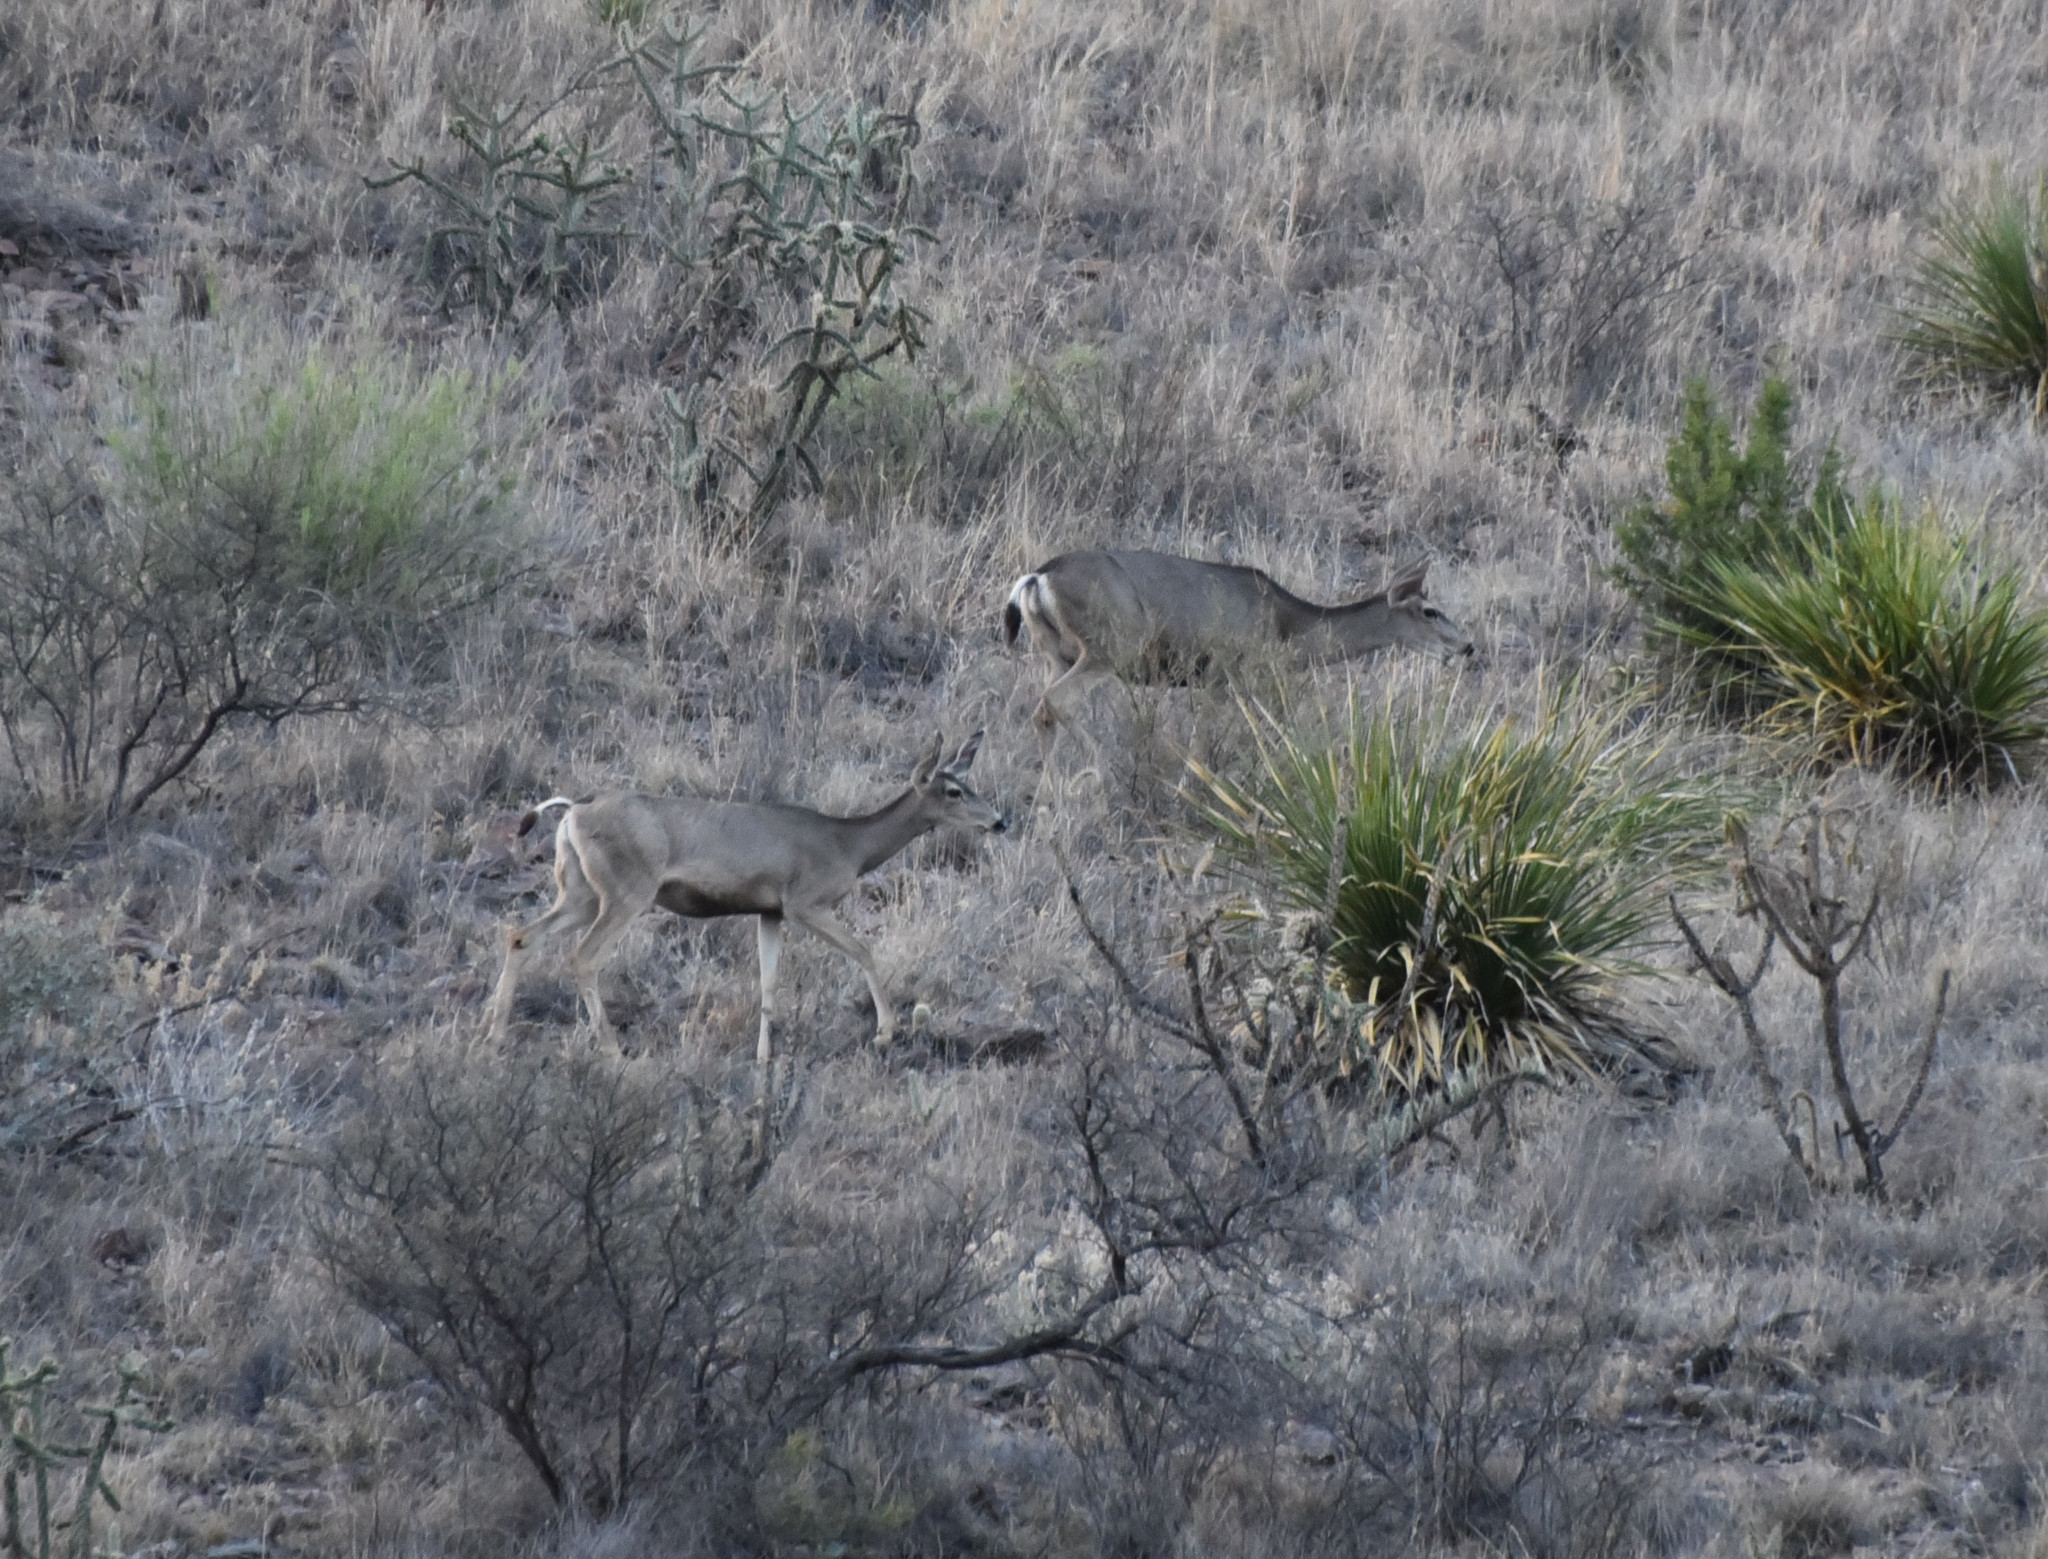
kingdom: Animalia
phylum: Chordata
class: Mammalia
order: Artiodactyla
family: Cervidae
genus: Odocoileus
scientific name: Odocoileus hemionus
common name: Mule deer
